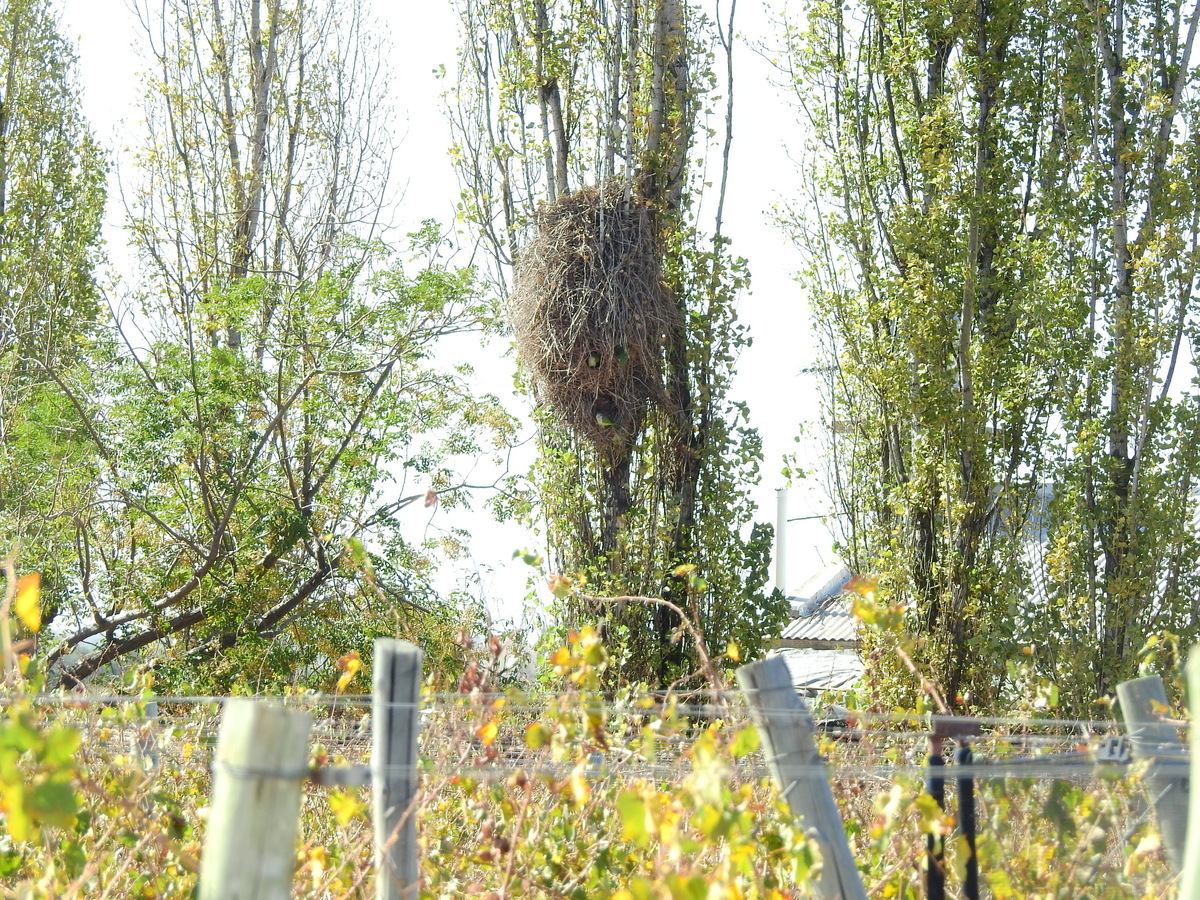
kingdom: Animalia
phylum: Chordata
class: Aves
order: Psittaciformes
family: Psittacidae
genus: Myiopsitta
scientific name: Myiopsitta monachus
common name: Monk parakeet
